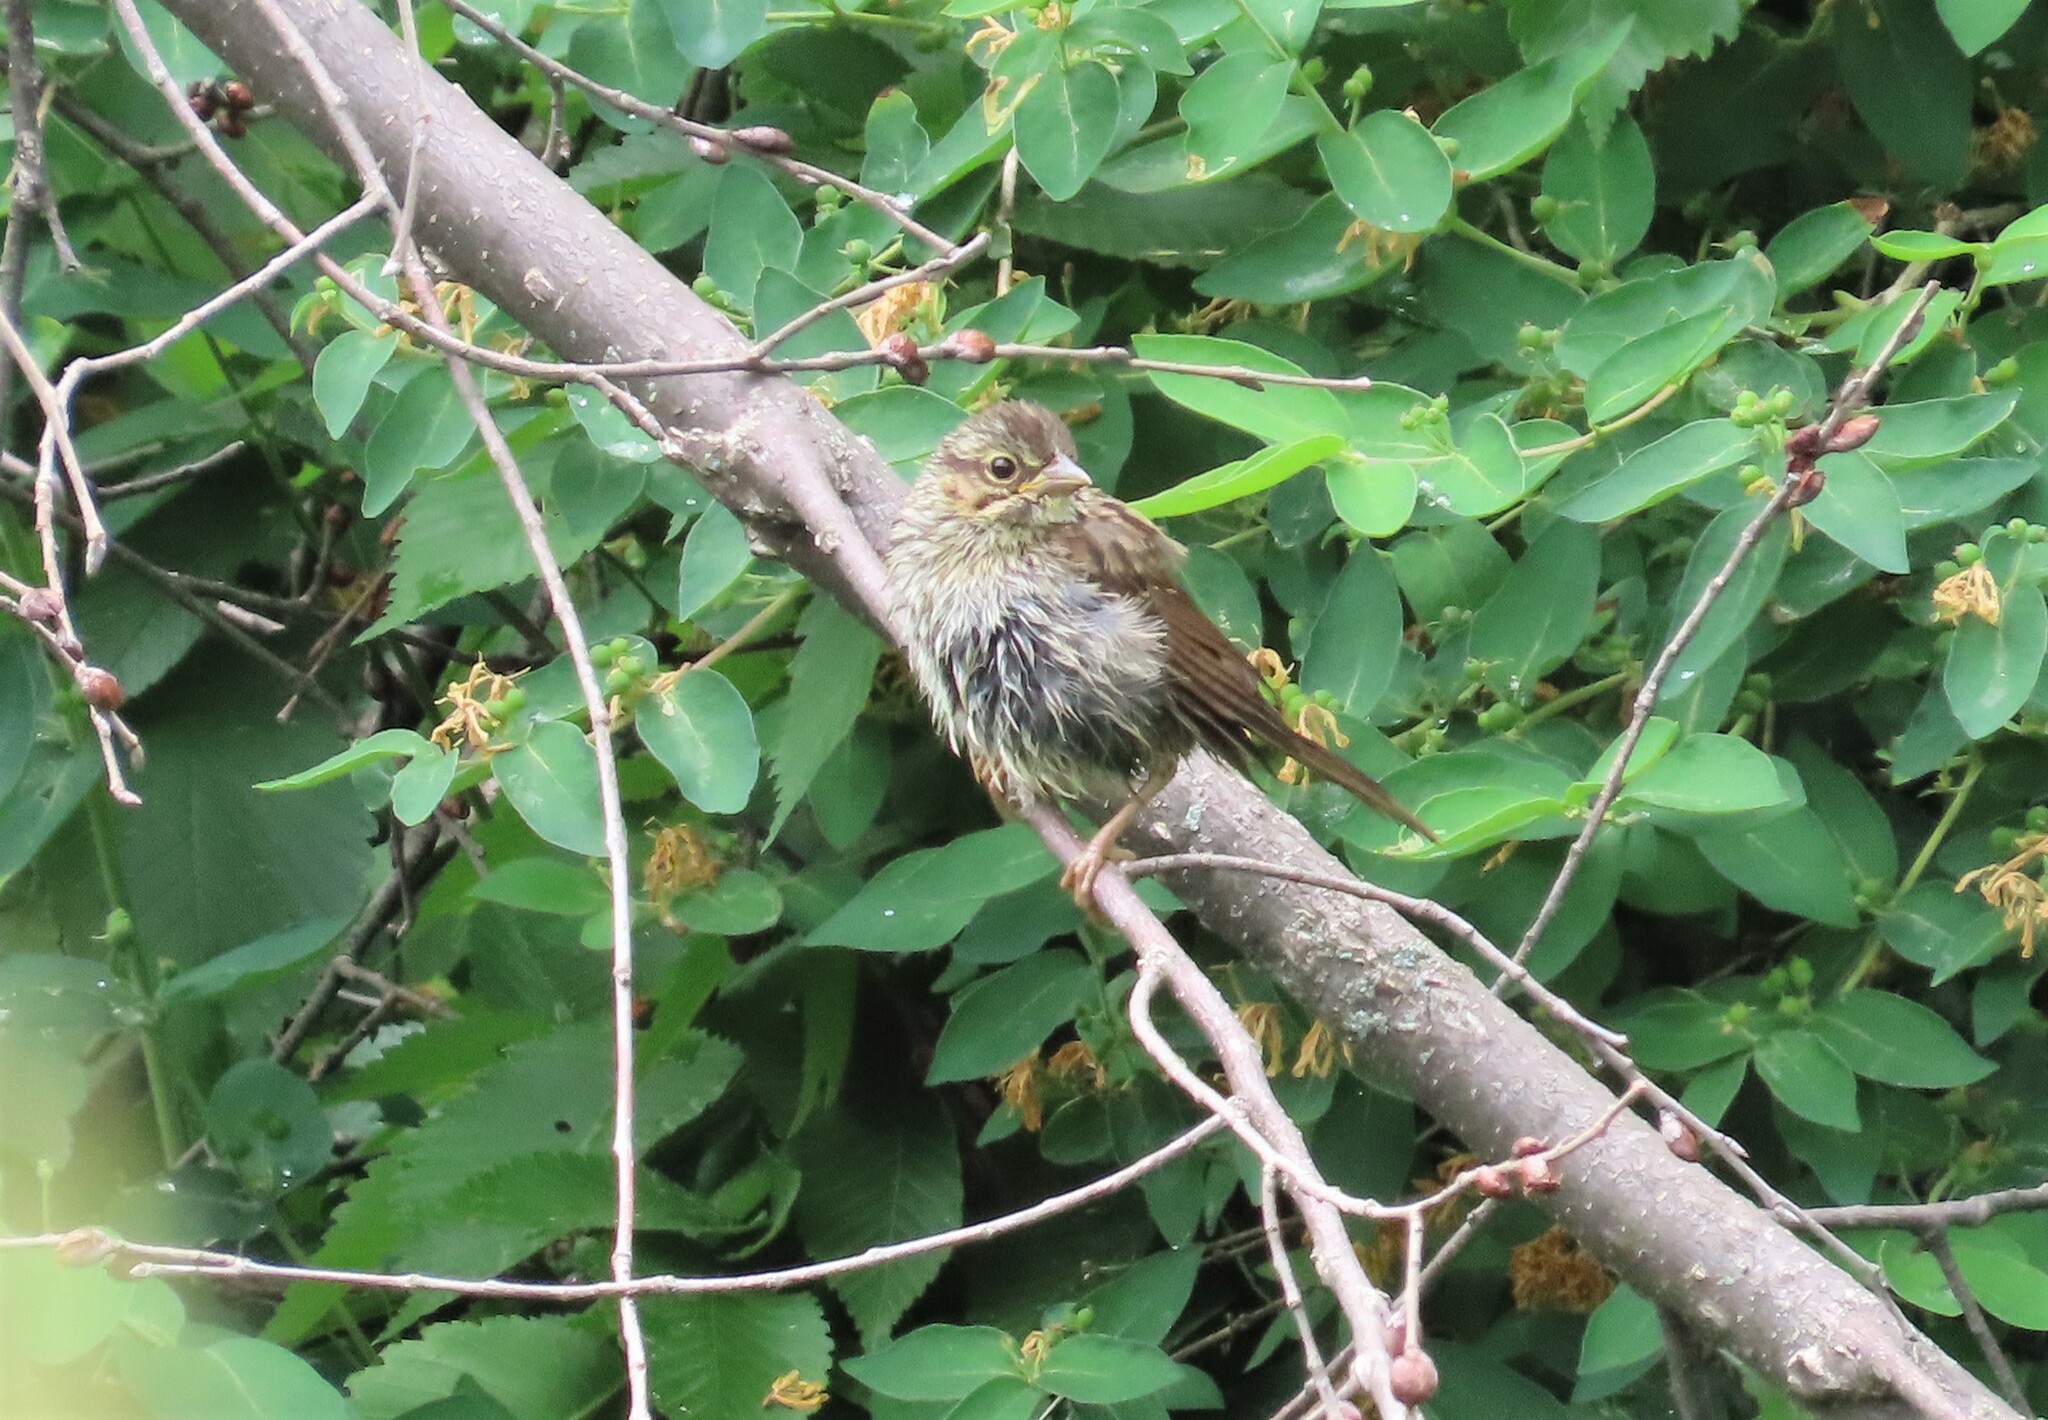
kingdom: Animalia
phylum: Chordata
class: Aves
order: Passeriformes
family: Passerellidae
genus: Melospiza
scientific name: Melospiza melodia
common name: Song sparrow
